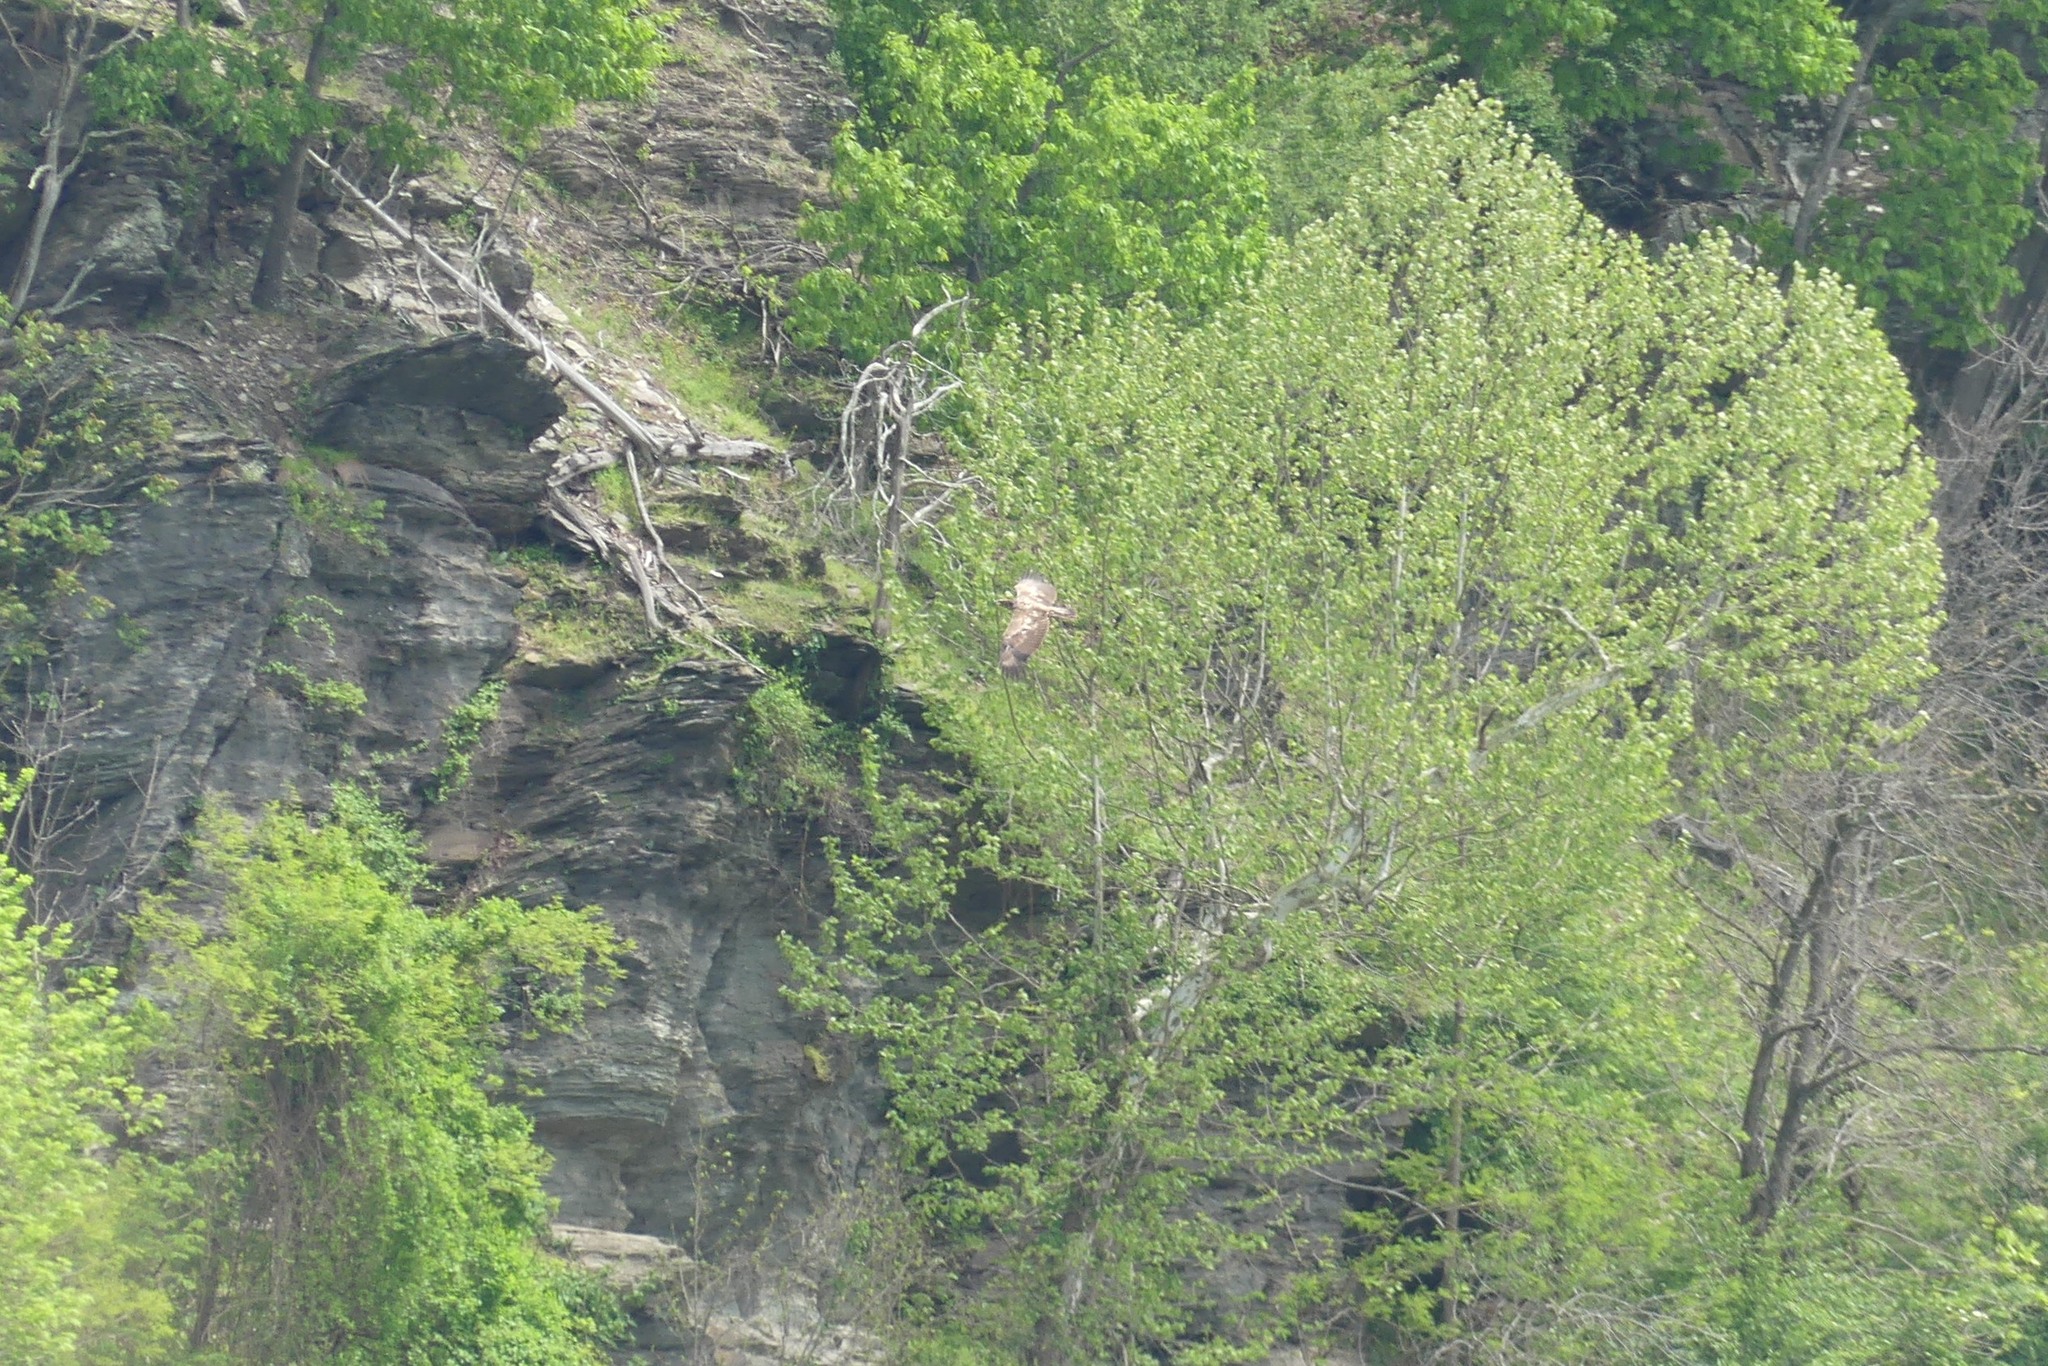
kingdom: Animalia
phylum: Chordata
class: Aves
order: Accipitriformes
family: Accipitridae
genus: Haliaeetus
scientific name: Haliaeetus leucocephalus
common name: Bald eagle
